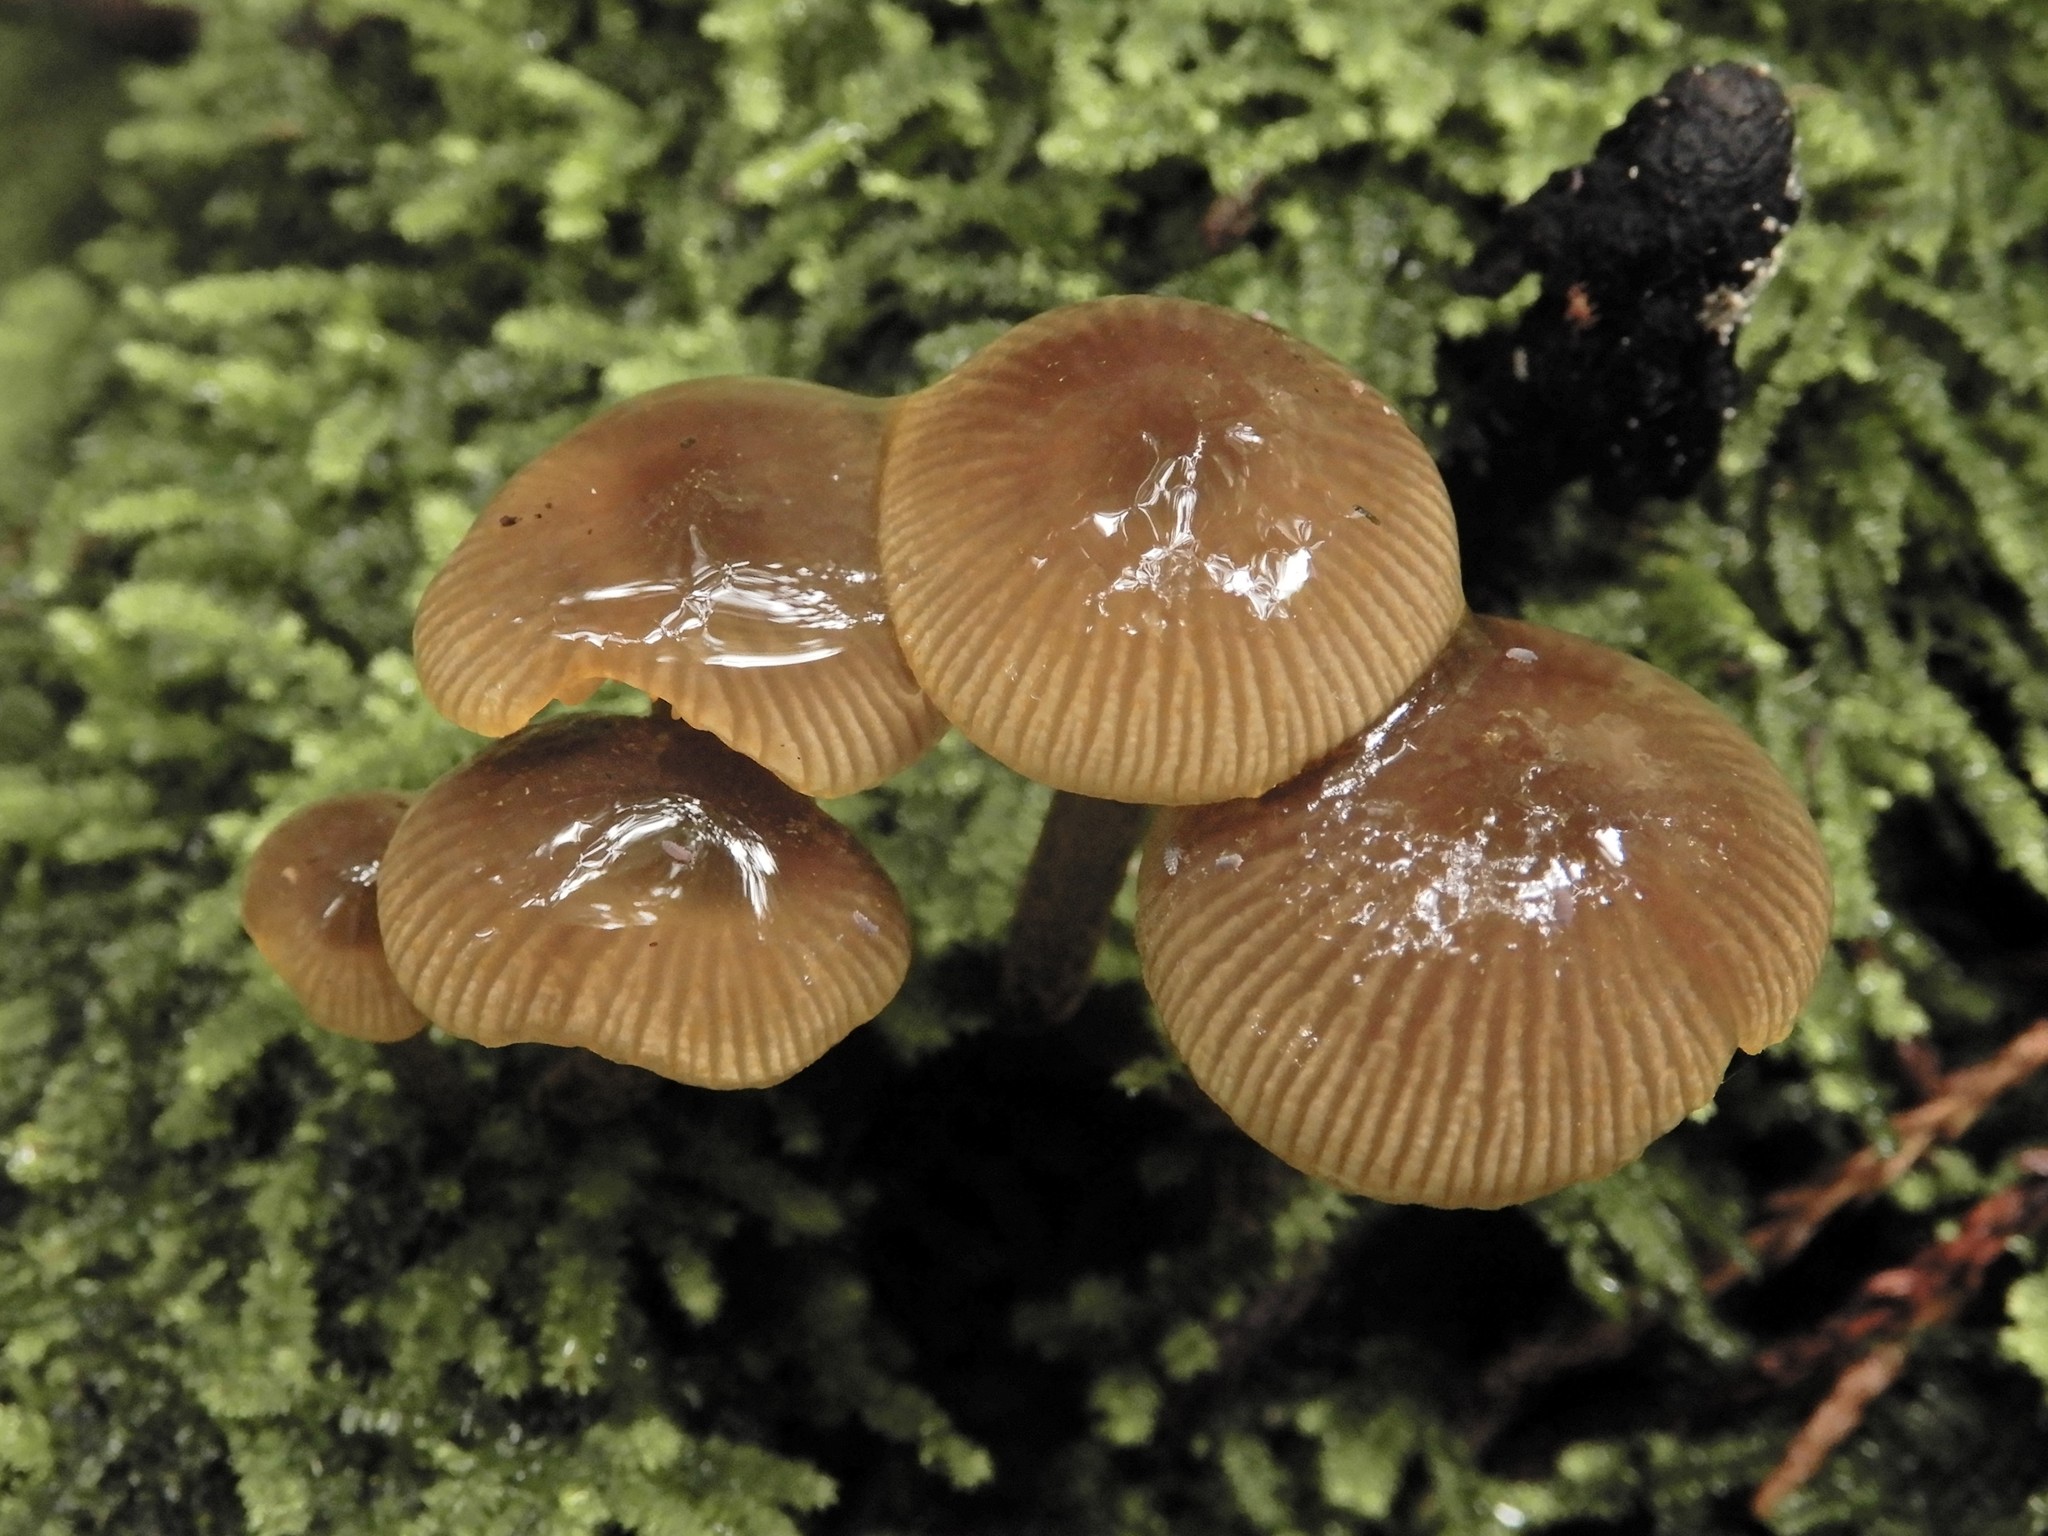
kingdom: Fungi
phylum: Basidiomycota
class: Agaricomycetes
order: Agaricales
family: Mycenaceae
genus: Mycena
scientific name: Mycena leaiana
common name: Orange mycena
